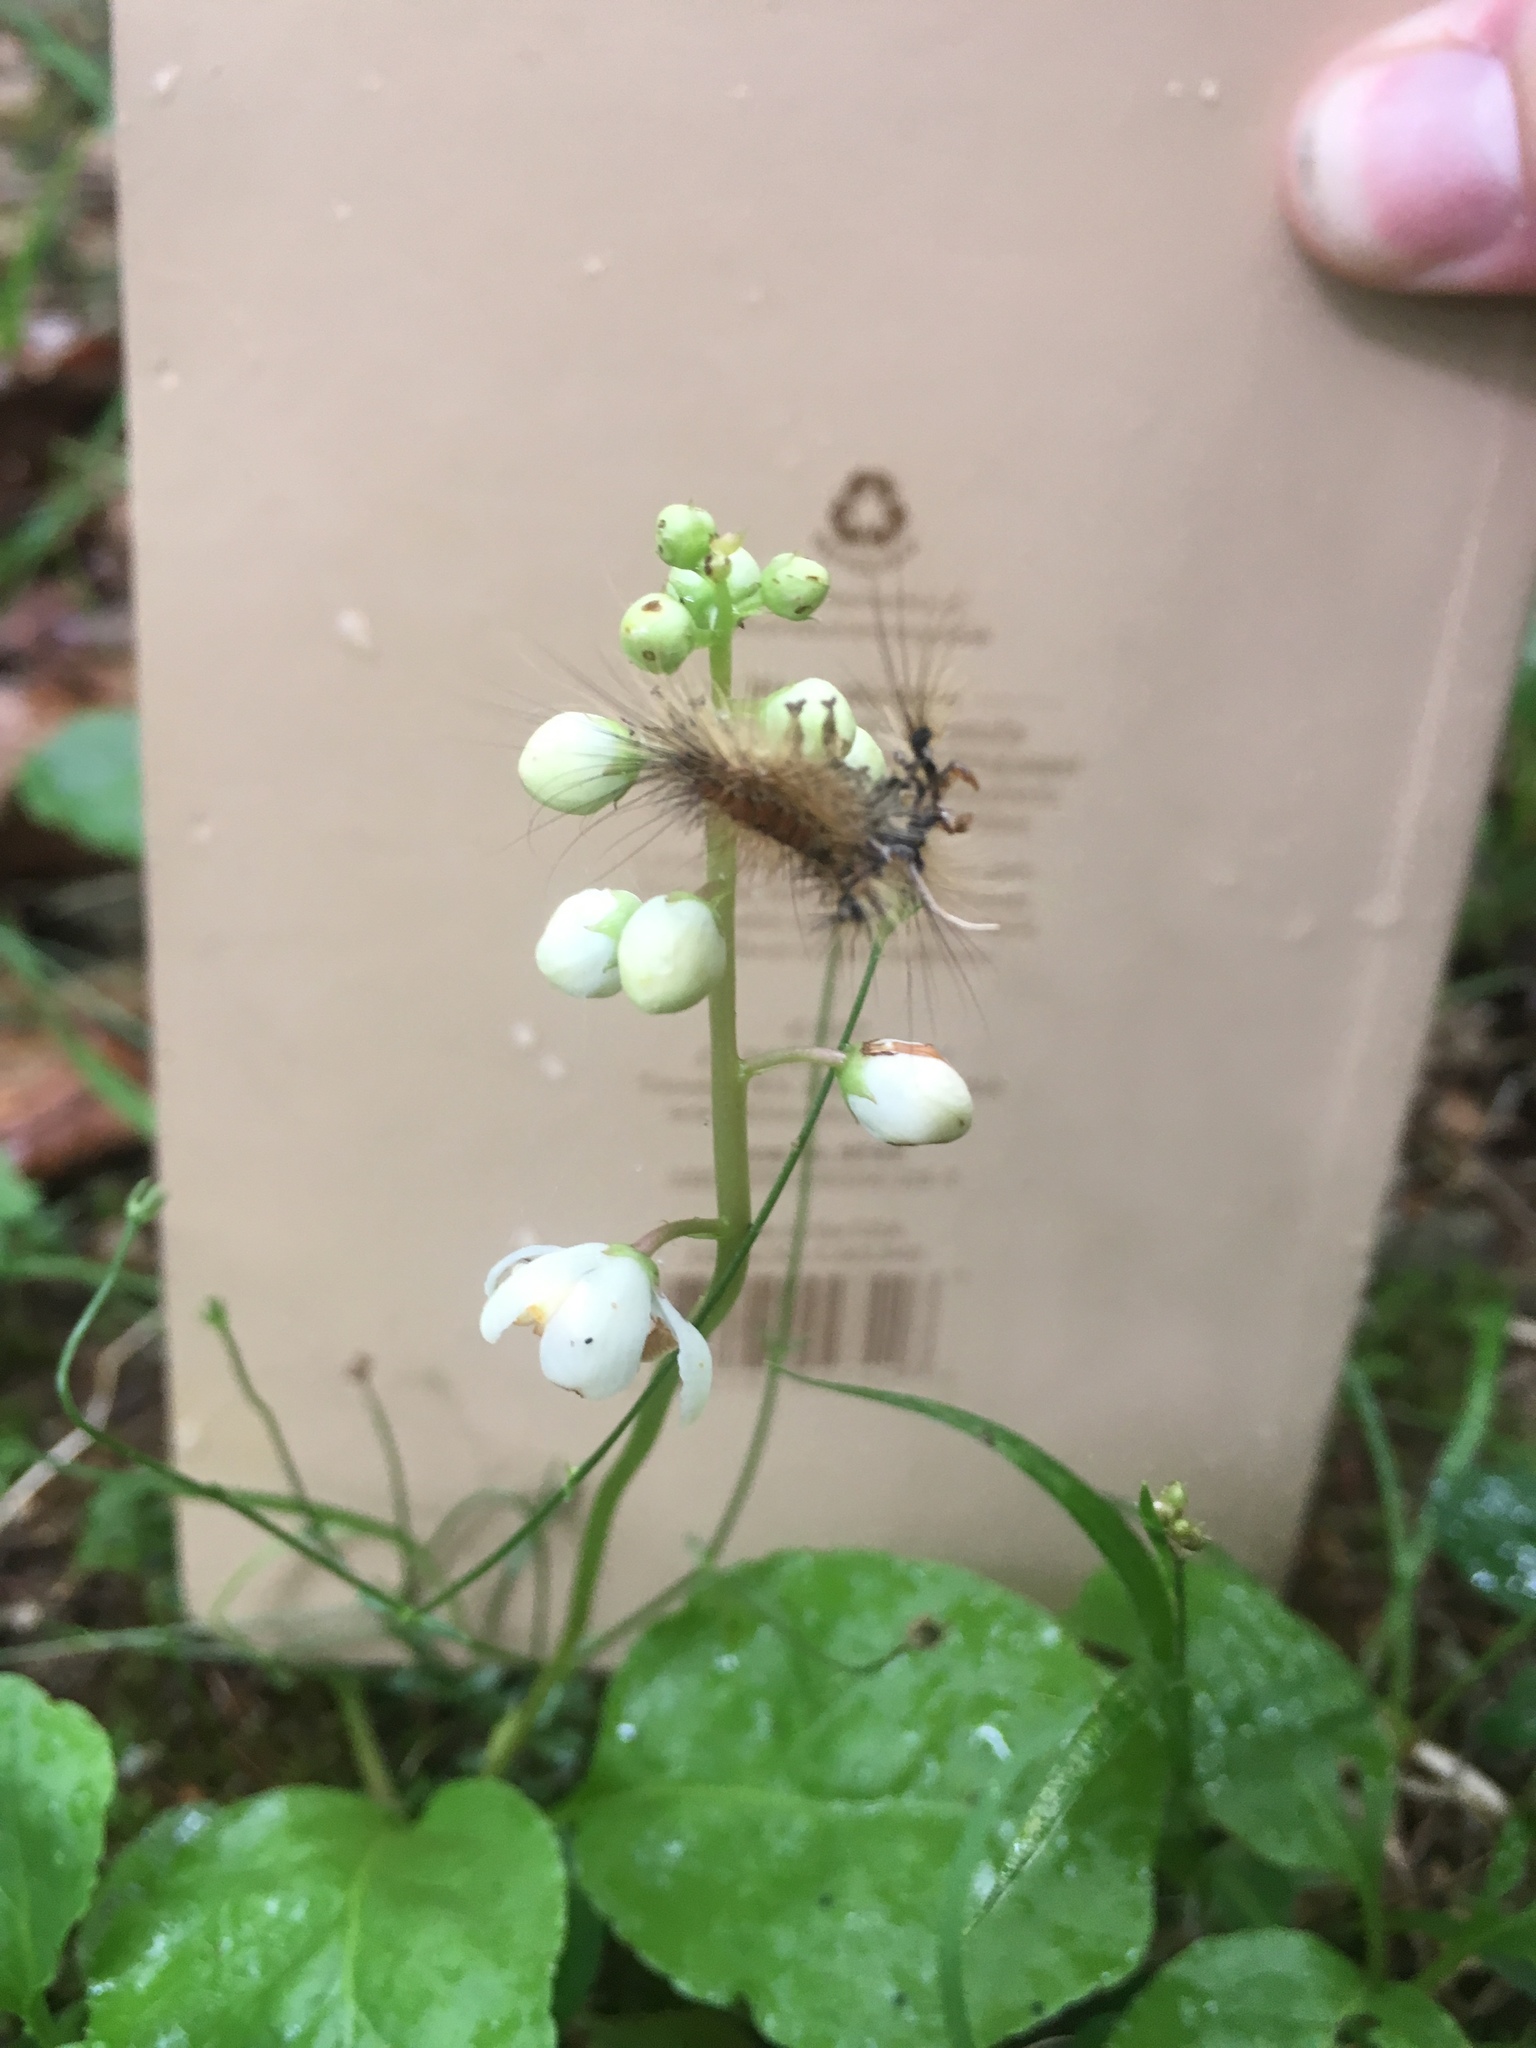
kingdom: Plantae
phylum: Tracheophyta
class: Magnoliopsida
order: Ericales
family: Ericaceae
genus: Pyrola
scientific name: Pyrola elliptica
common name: Shinleaf
